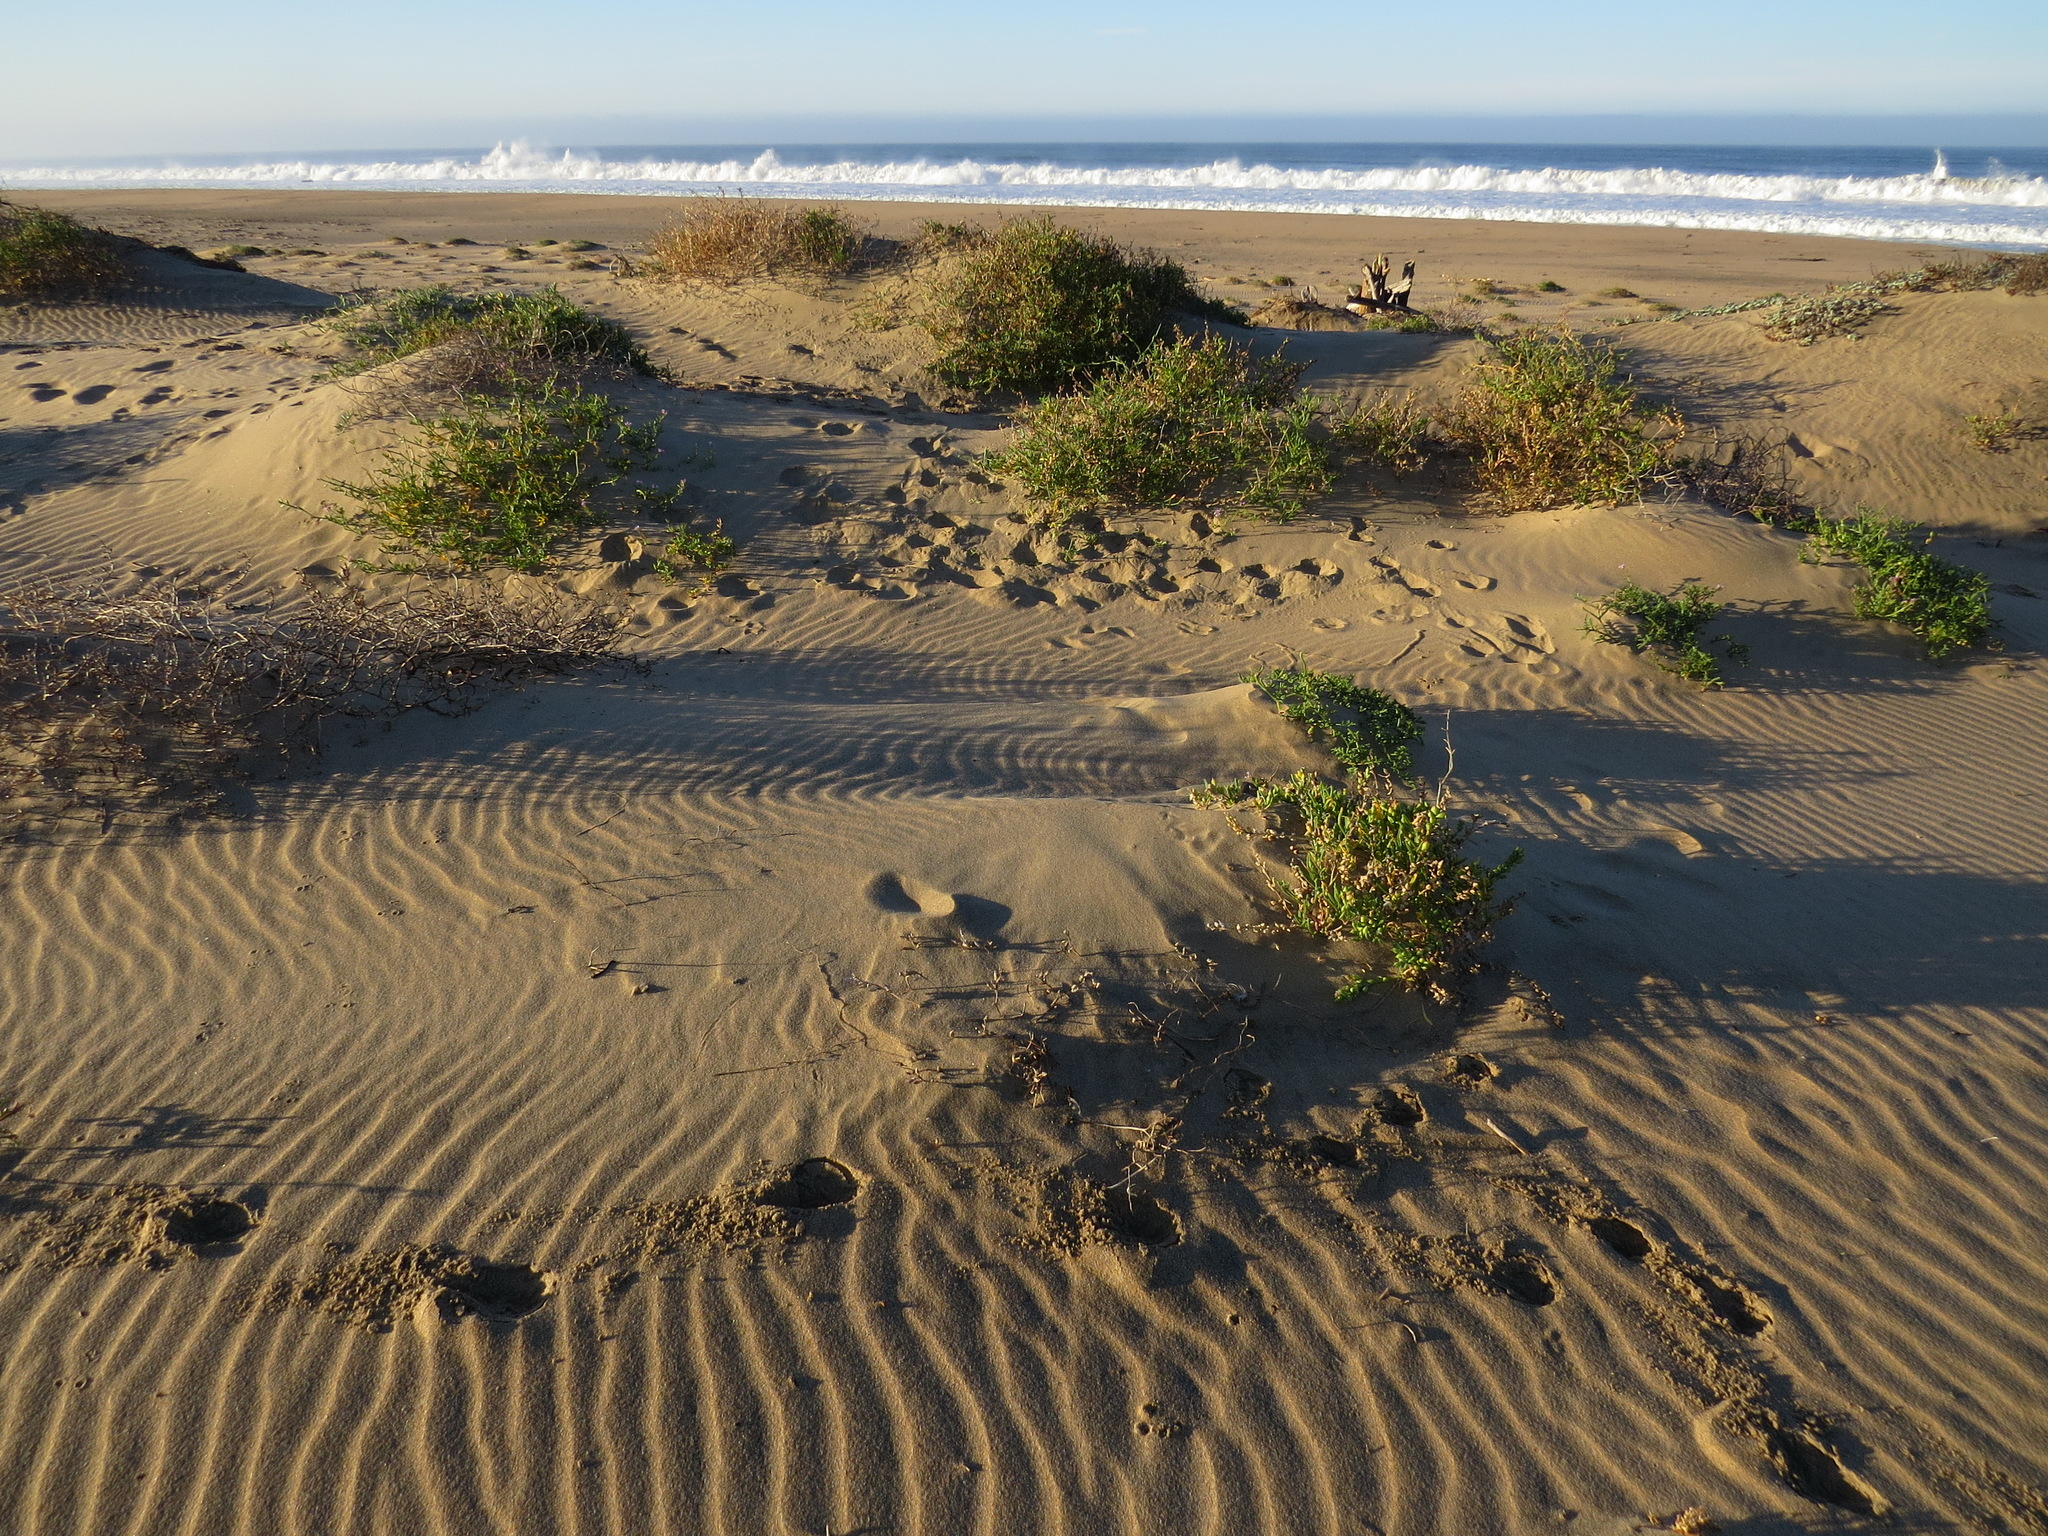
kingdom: Animalia
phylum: Chordata
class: Mammalia
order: Artiodactyla
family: Cervidae
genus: Odocoileus
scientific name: Odocoileus hemionus
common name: Mule deer
